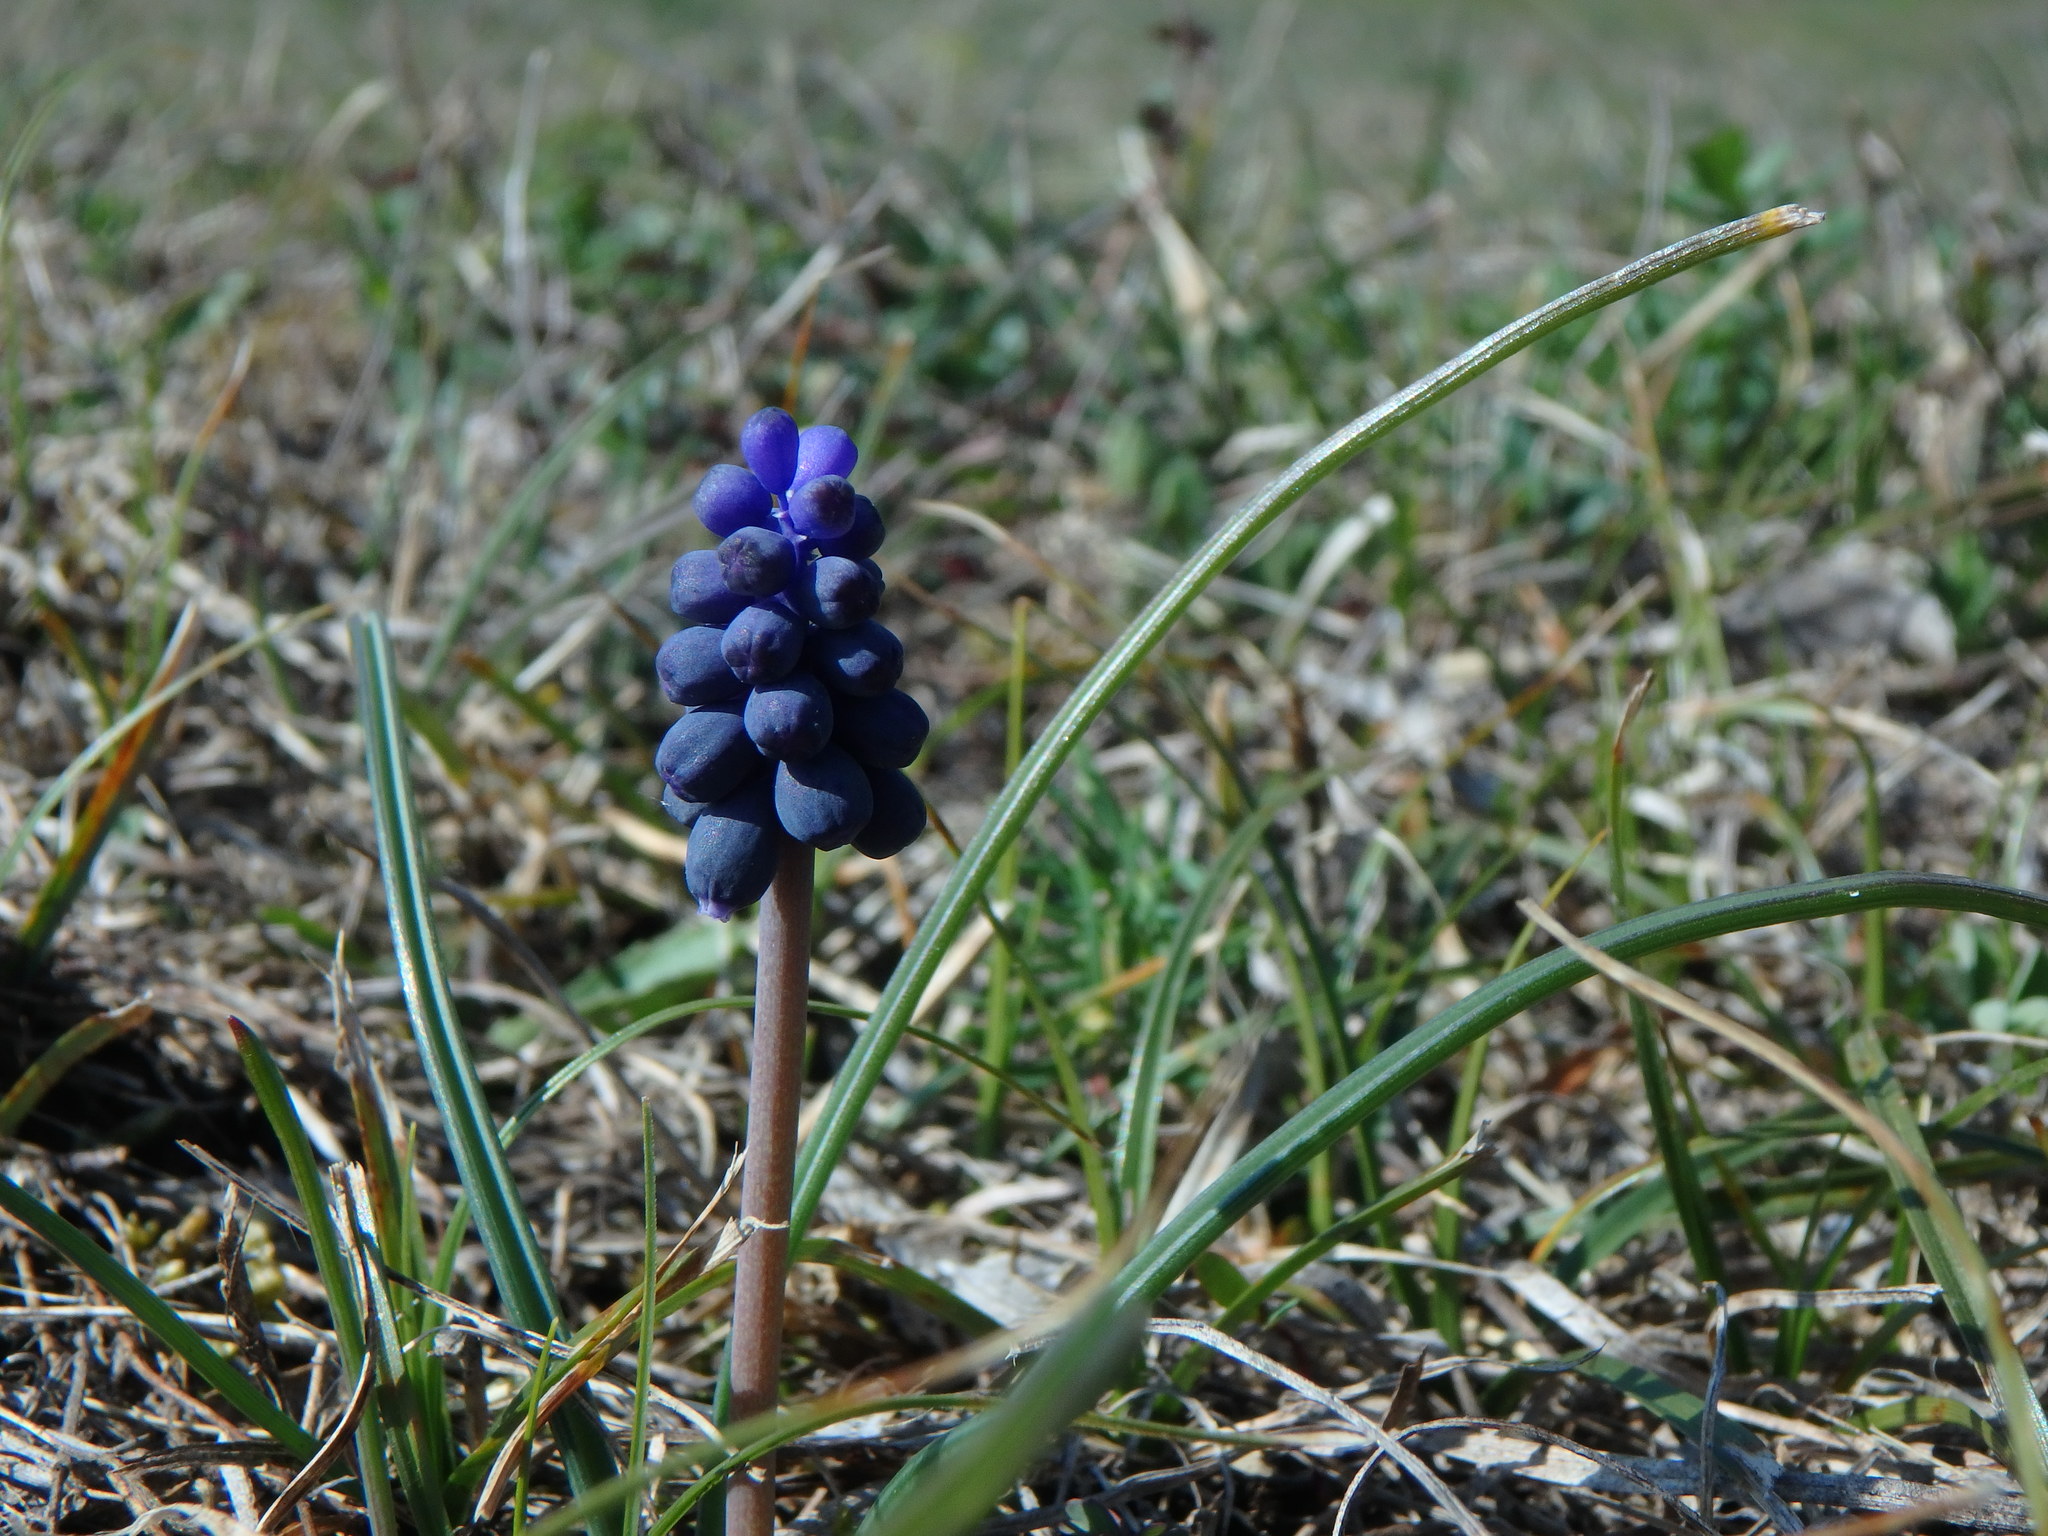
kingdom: Plantae
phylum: Tracheophyta
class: Liliopsida
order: Asparagales
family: Asparagaceae
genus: Muscari
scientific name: Muscari neglectum
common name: Grape-hyacinth
